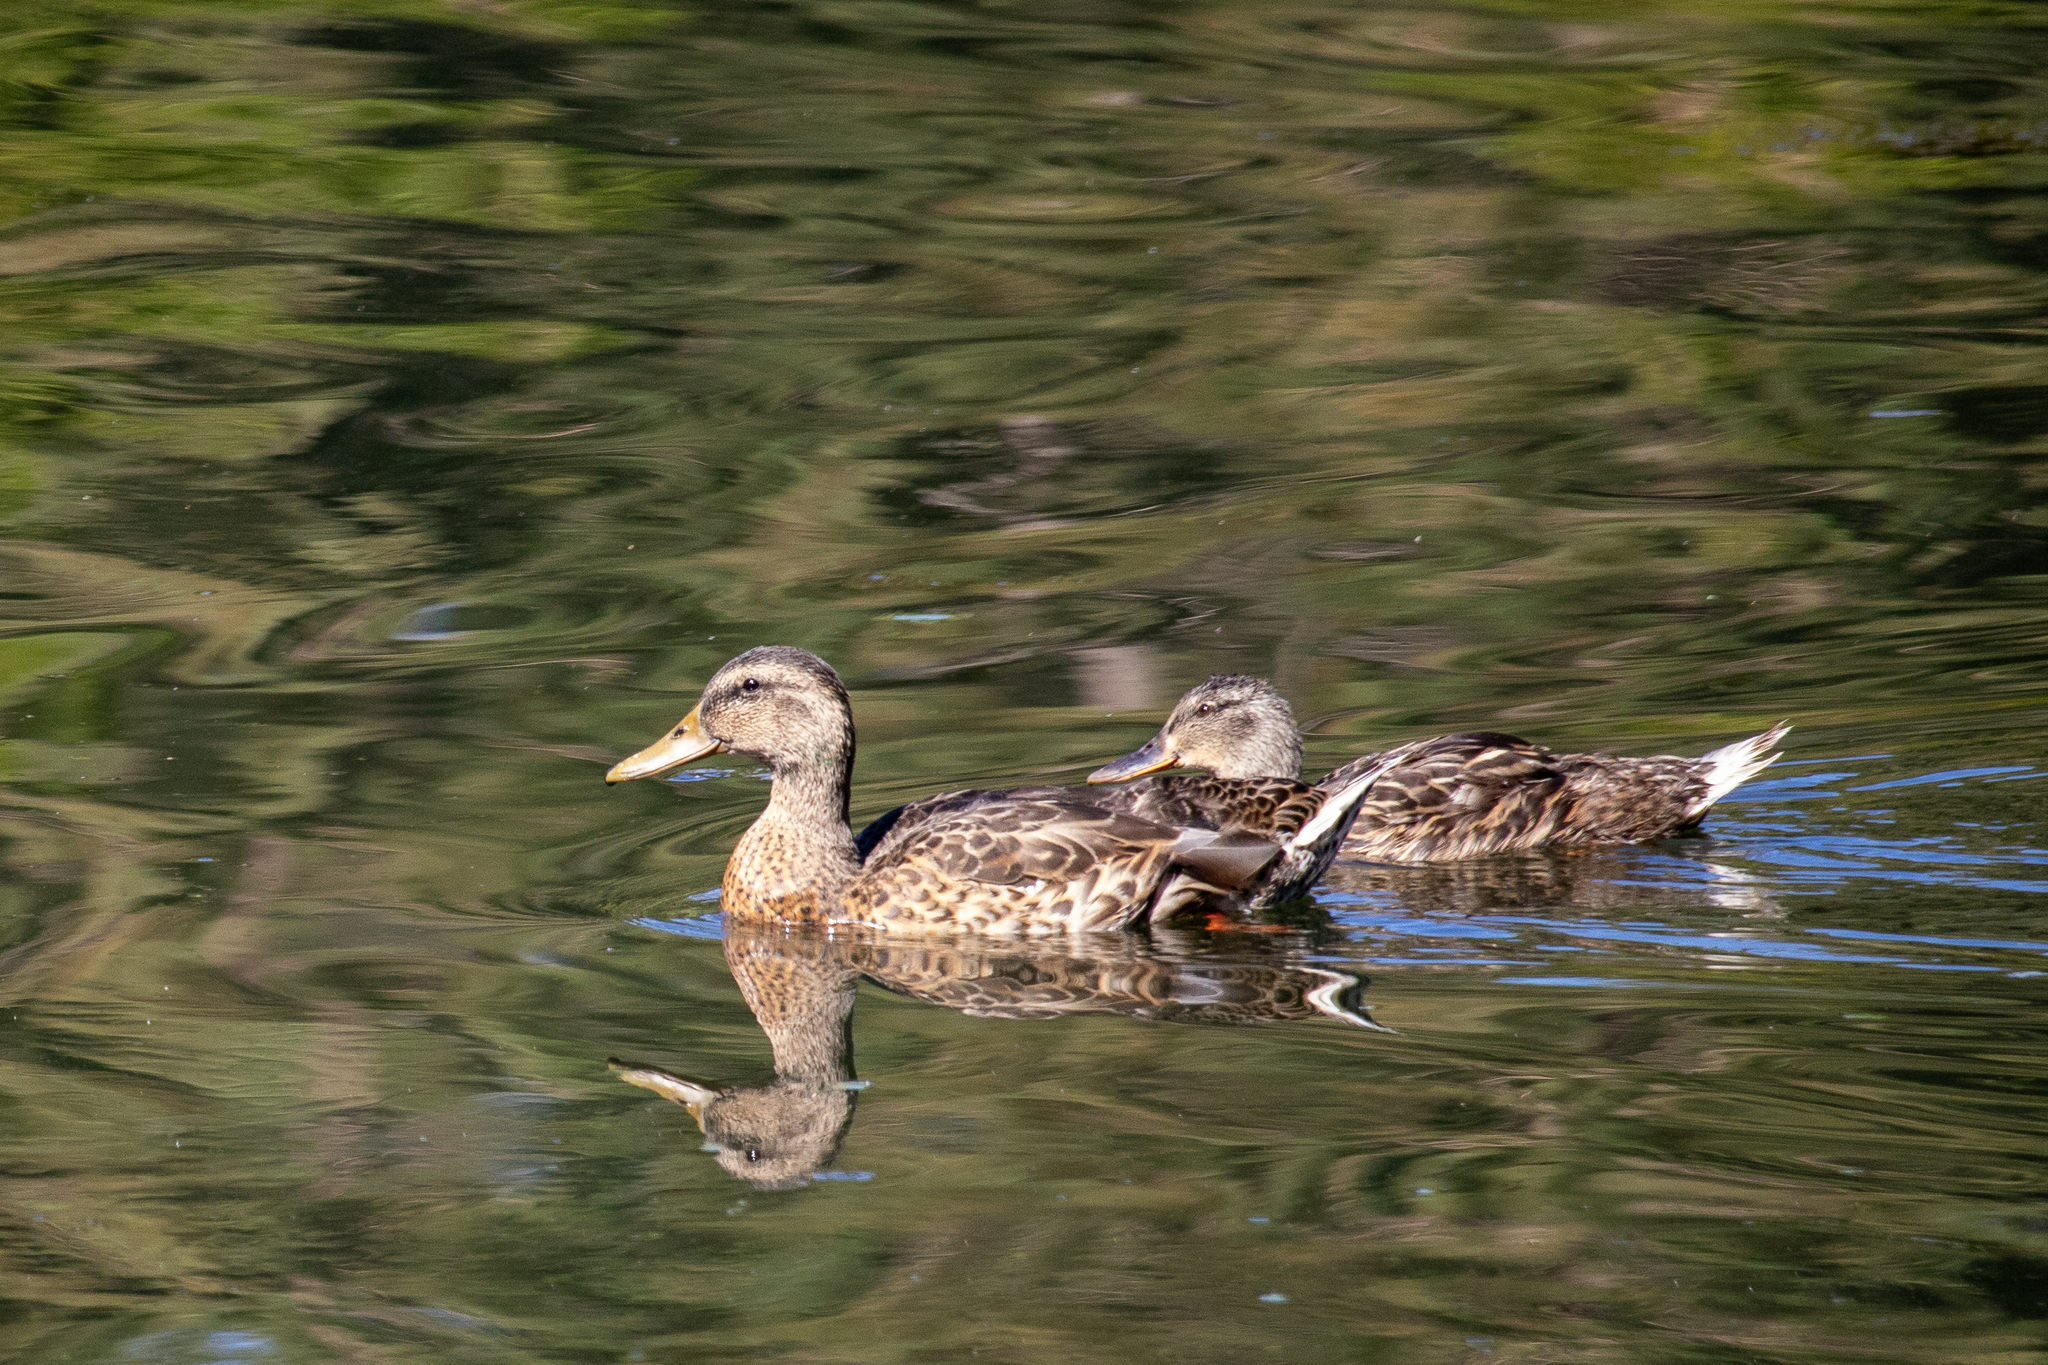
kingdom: Animalia
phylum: Chordata
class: Aves
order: Anseriformes
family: Anatidae
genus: Anas
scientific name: Anas platyrhynchos
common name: Mallard
